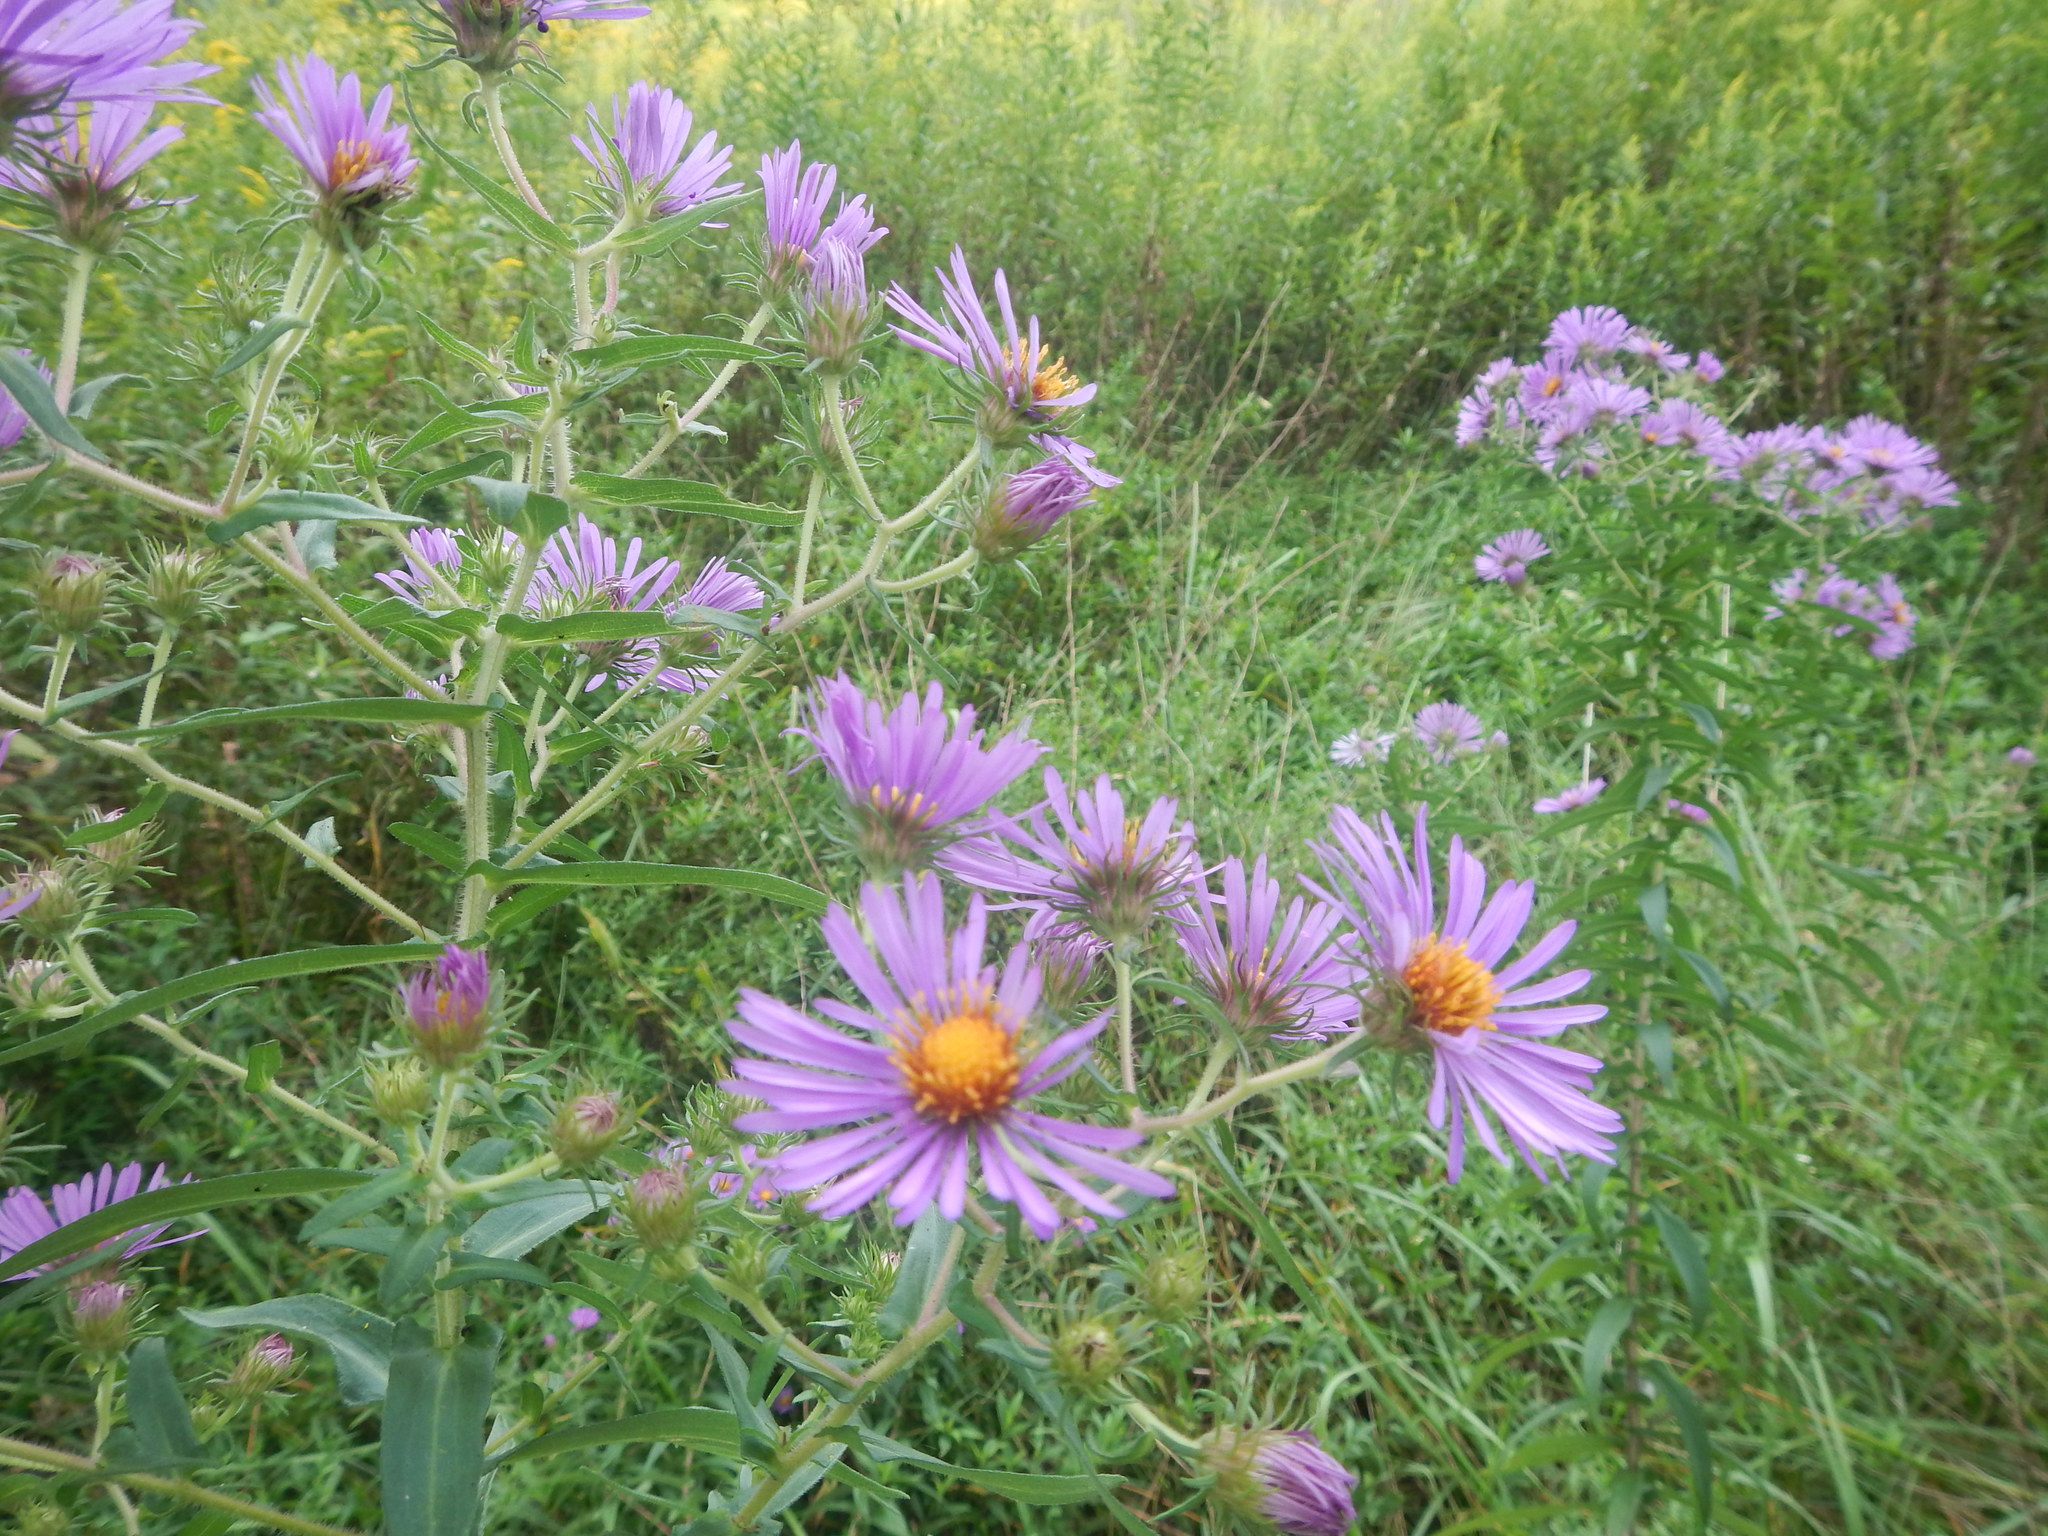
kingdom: Plantae
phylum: Tracheophyta
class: Magnoliopsida
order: Asterales
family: Asteraceae
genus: Symphyotrichum
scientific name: Symphyotrichum novae-angliae
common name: Michaelmas daisy
